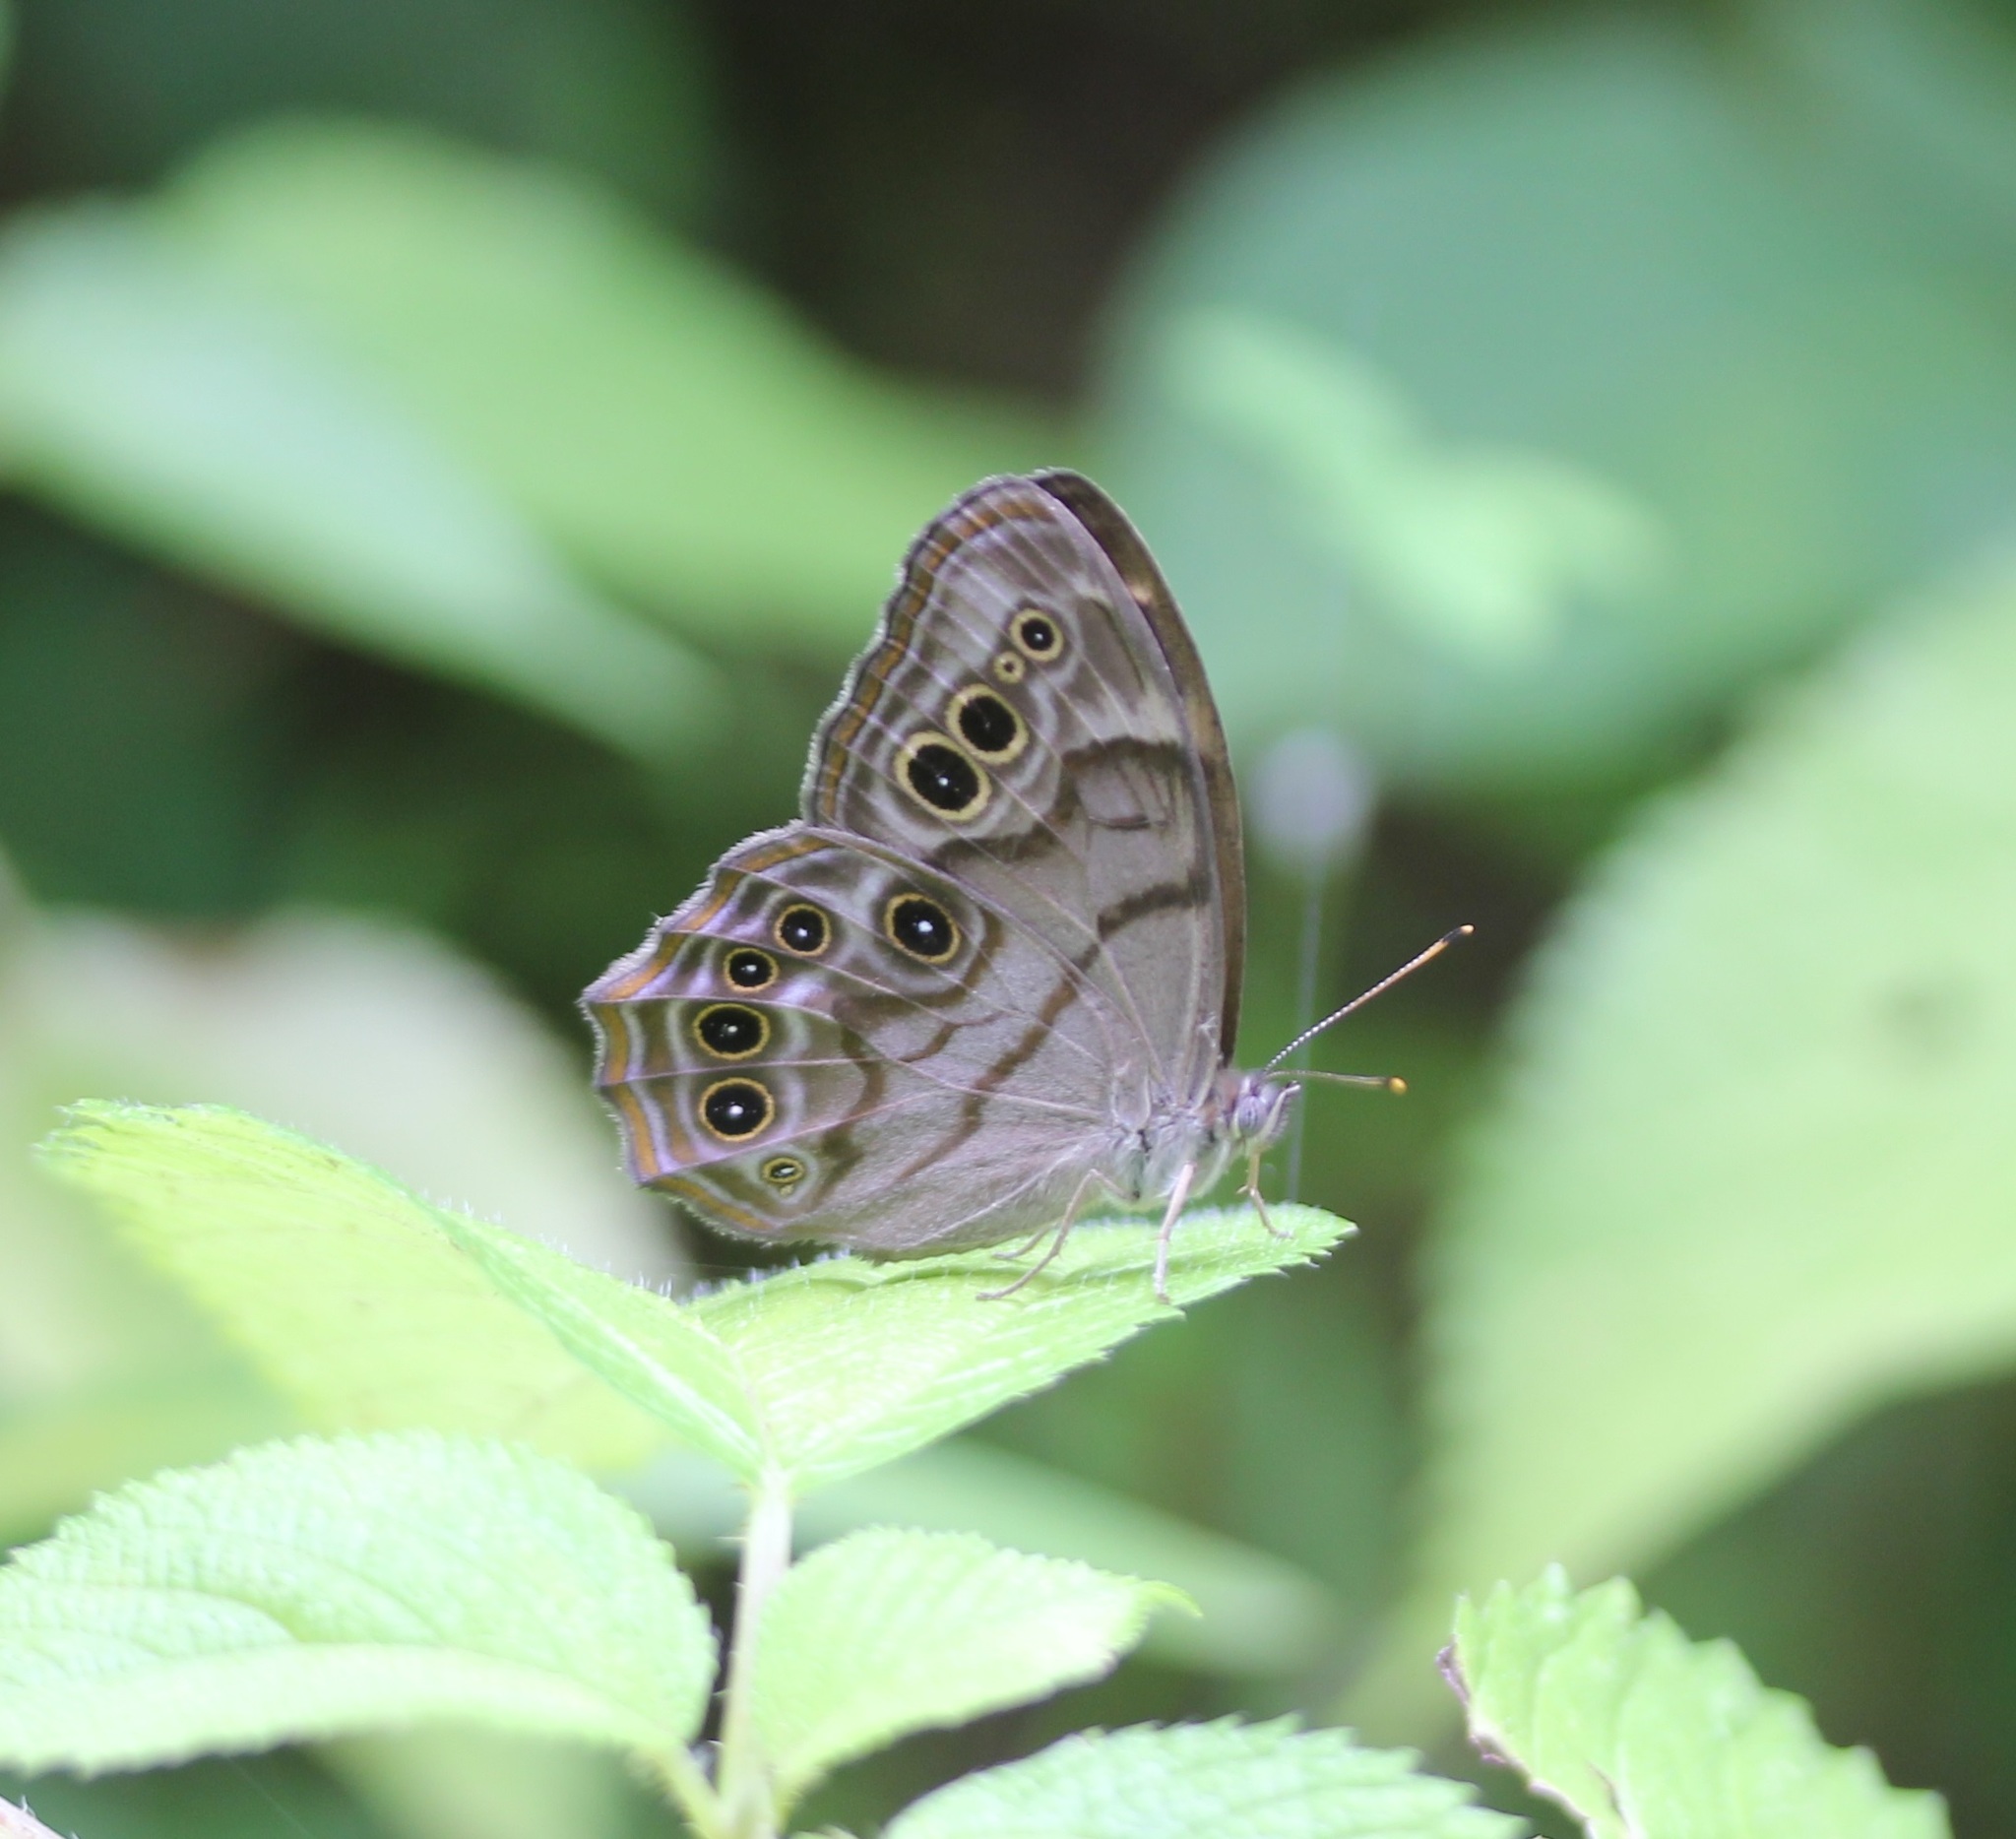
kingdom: Animalia
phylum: Arthropoda
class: Insecta
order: Lepidoptera
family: Nymphalidae
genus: Lethe
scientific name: Lethe anthedon
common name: Northern pearly-eye
